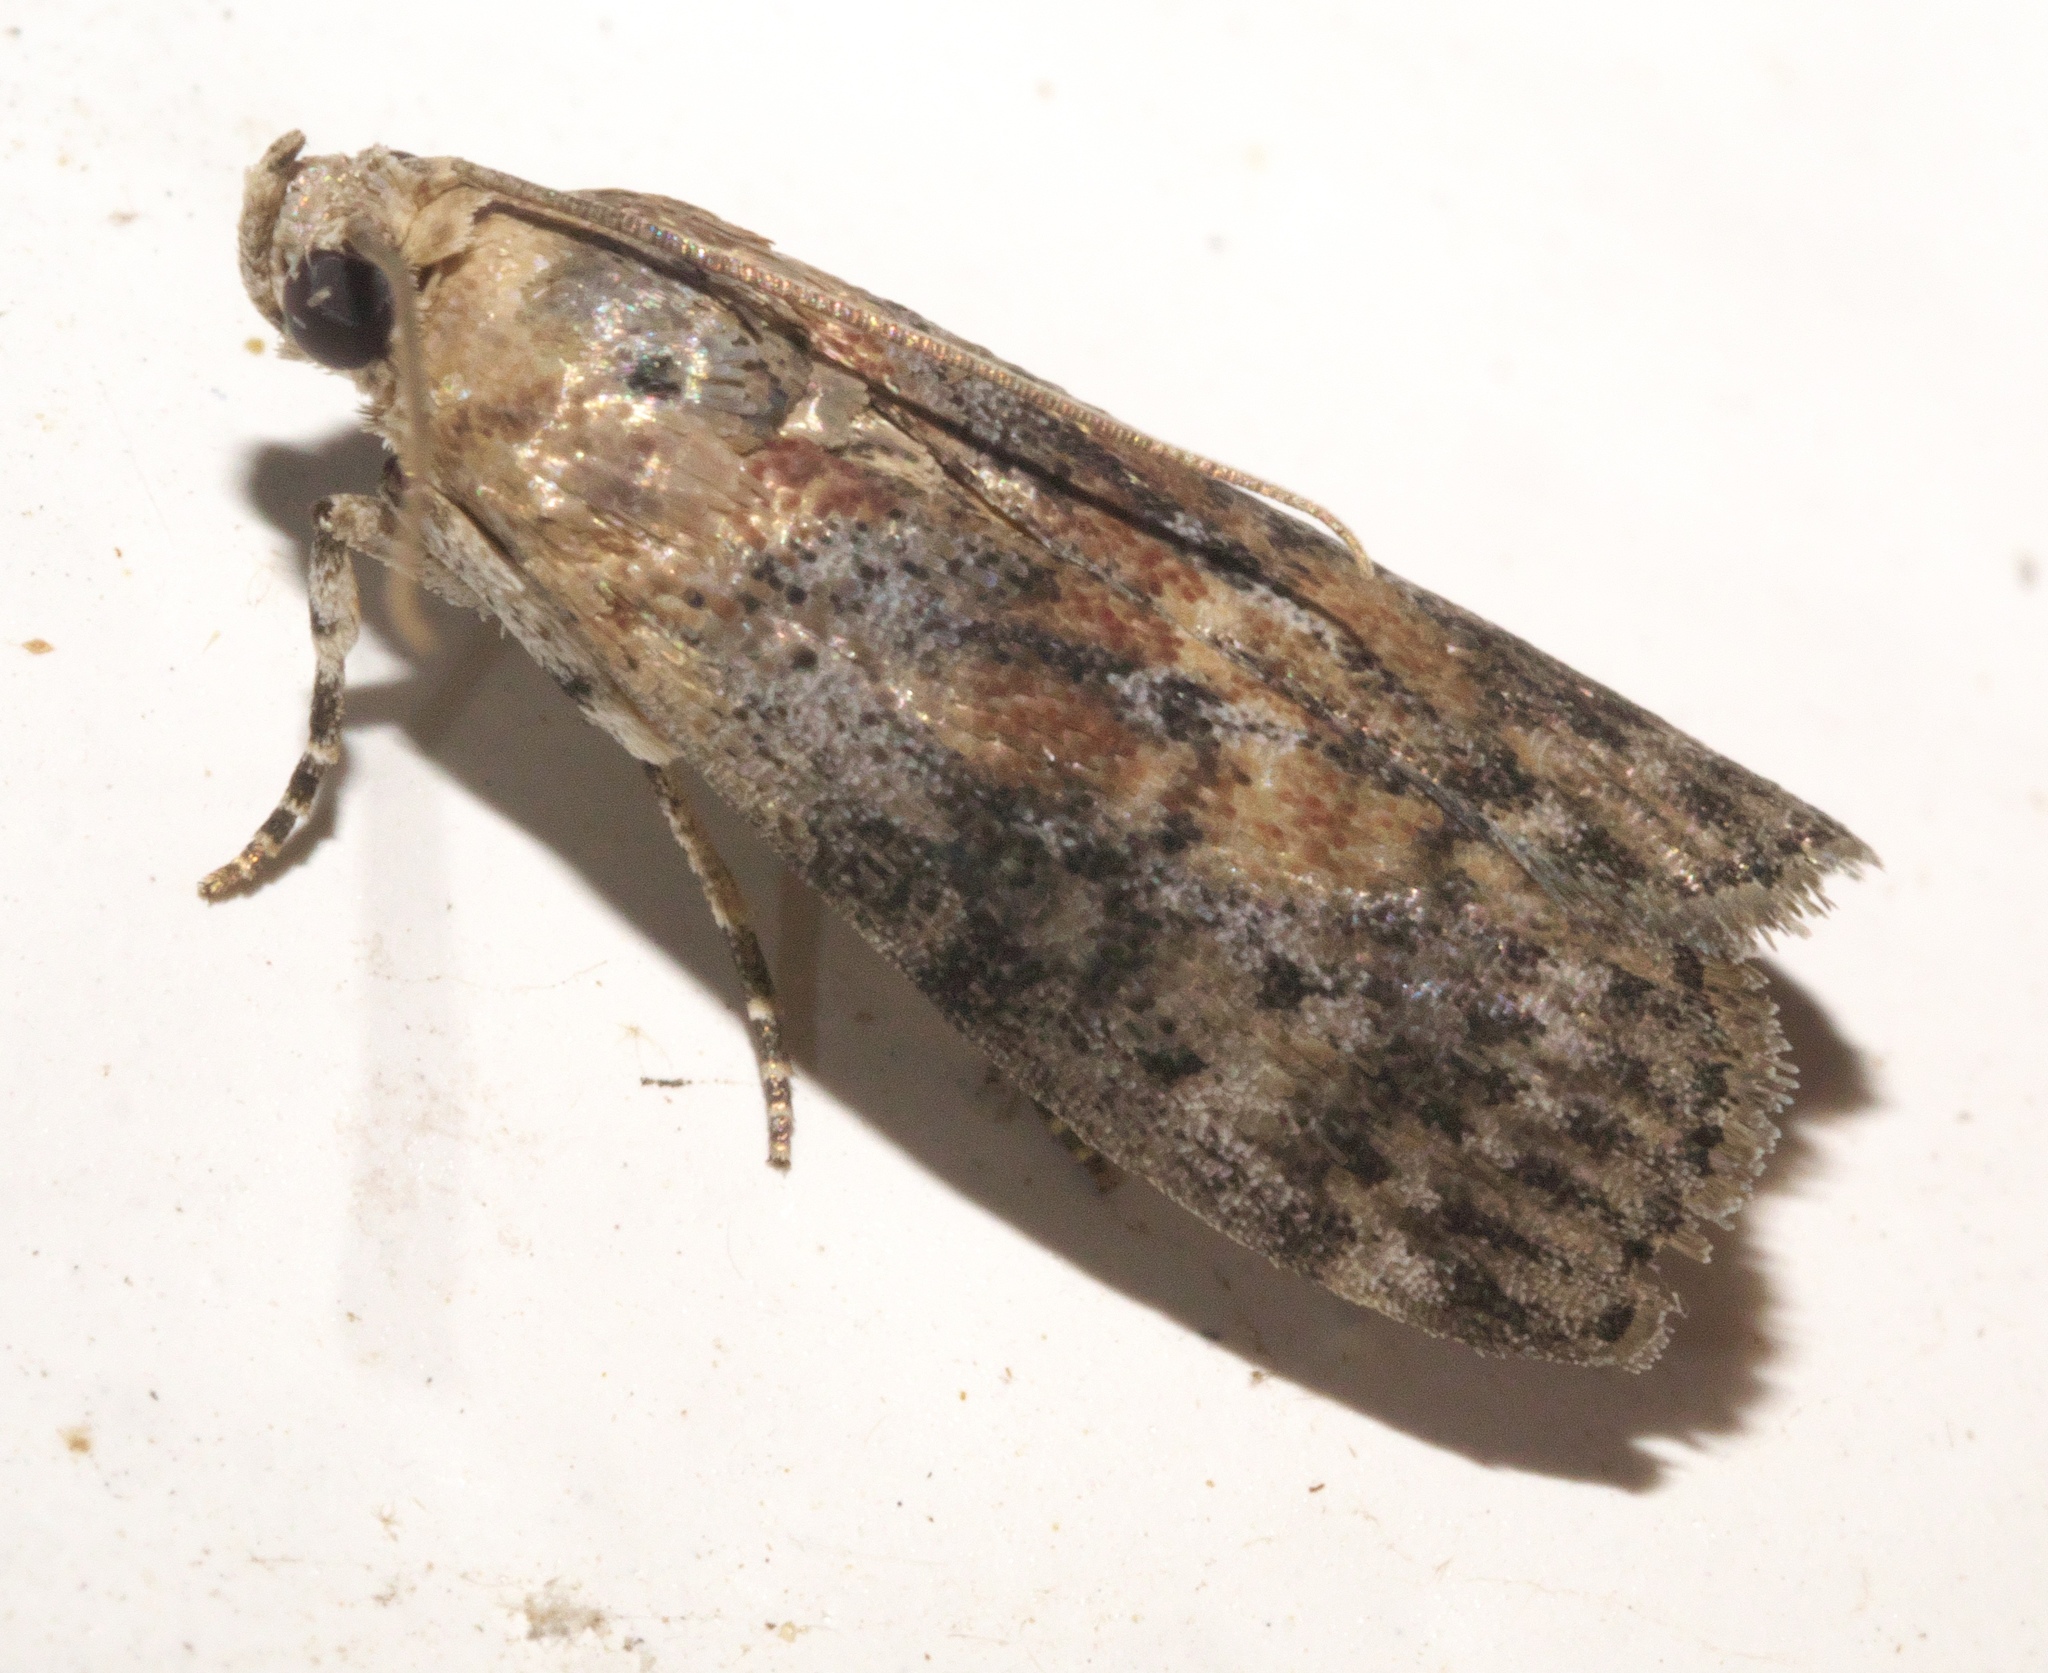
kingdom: Animalia
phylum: Arthropoda
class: Insecta
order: Lepidoptera
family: Pyralidae
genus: Sciota
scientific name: Sciota celtidella
